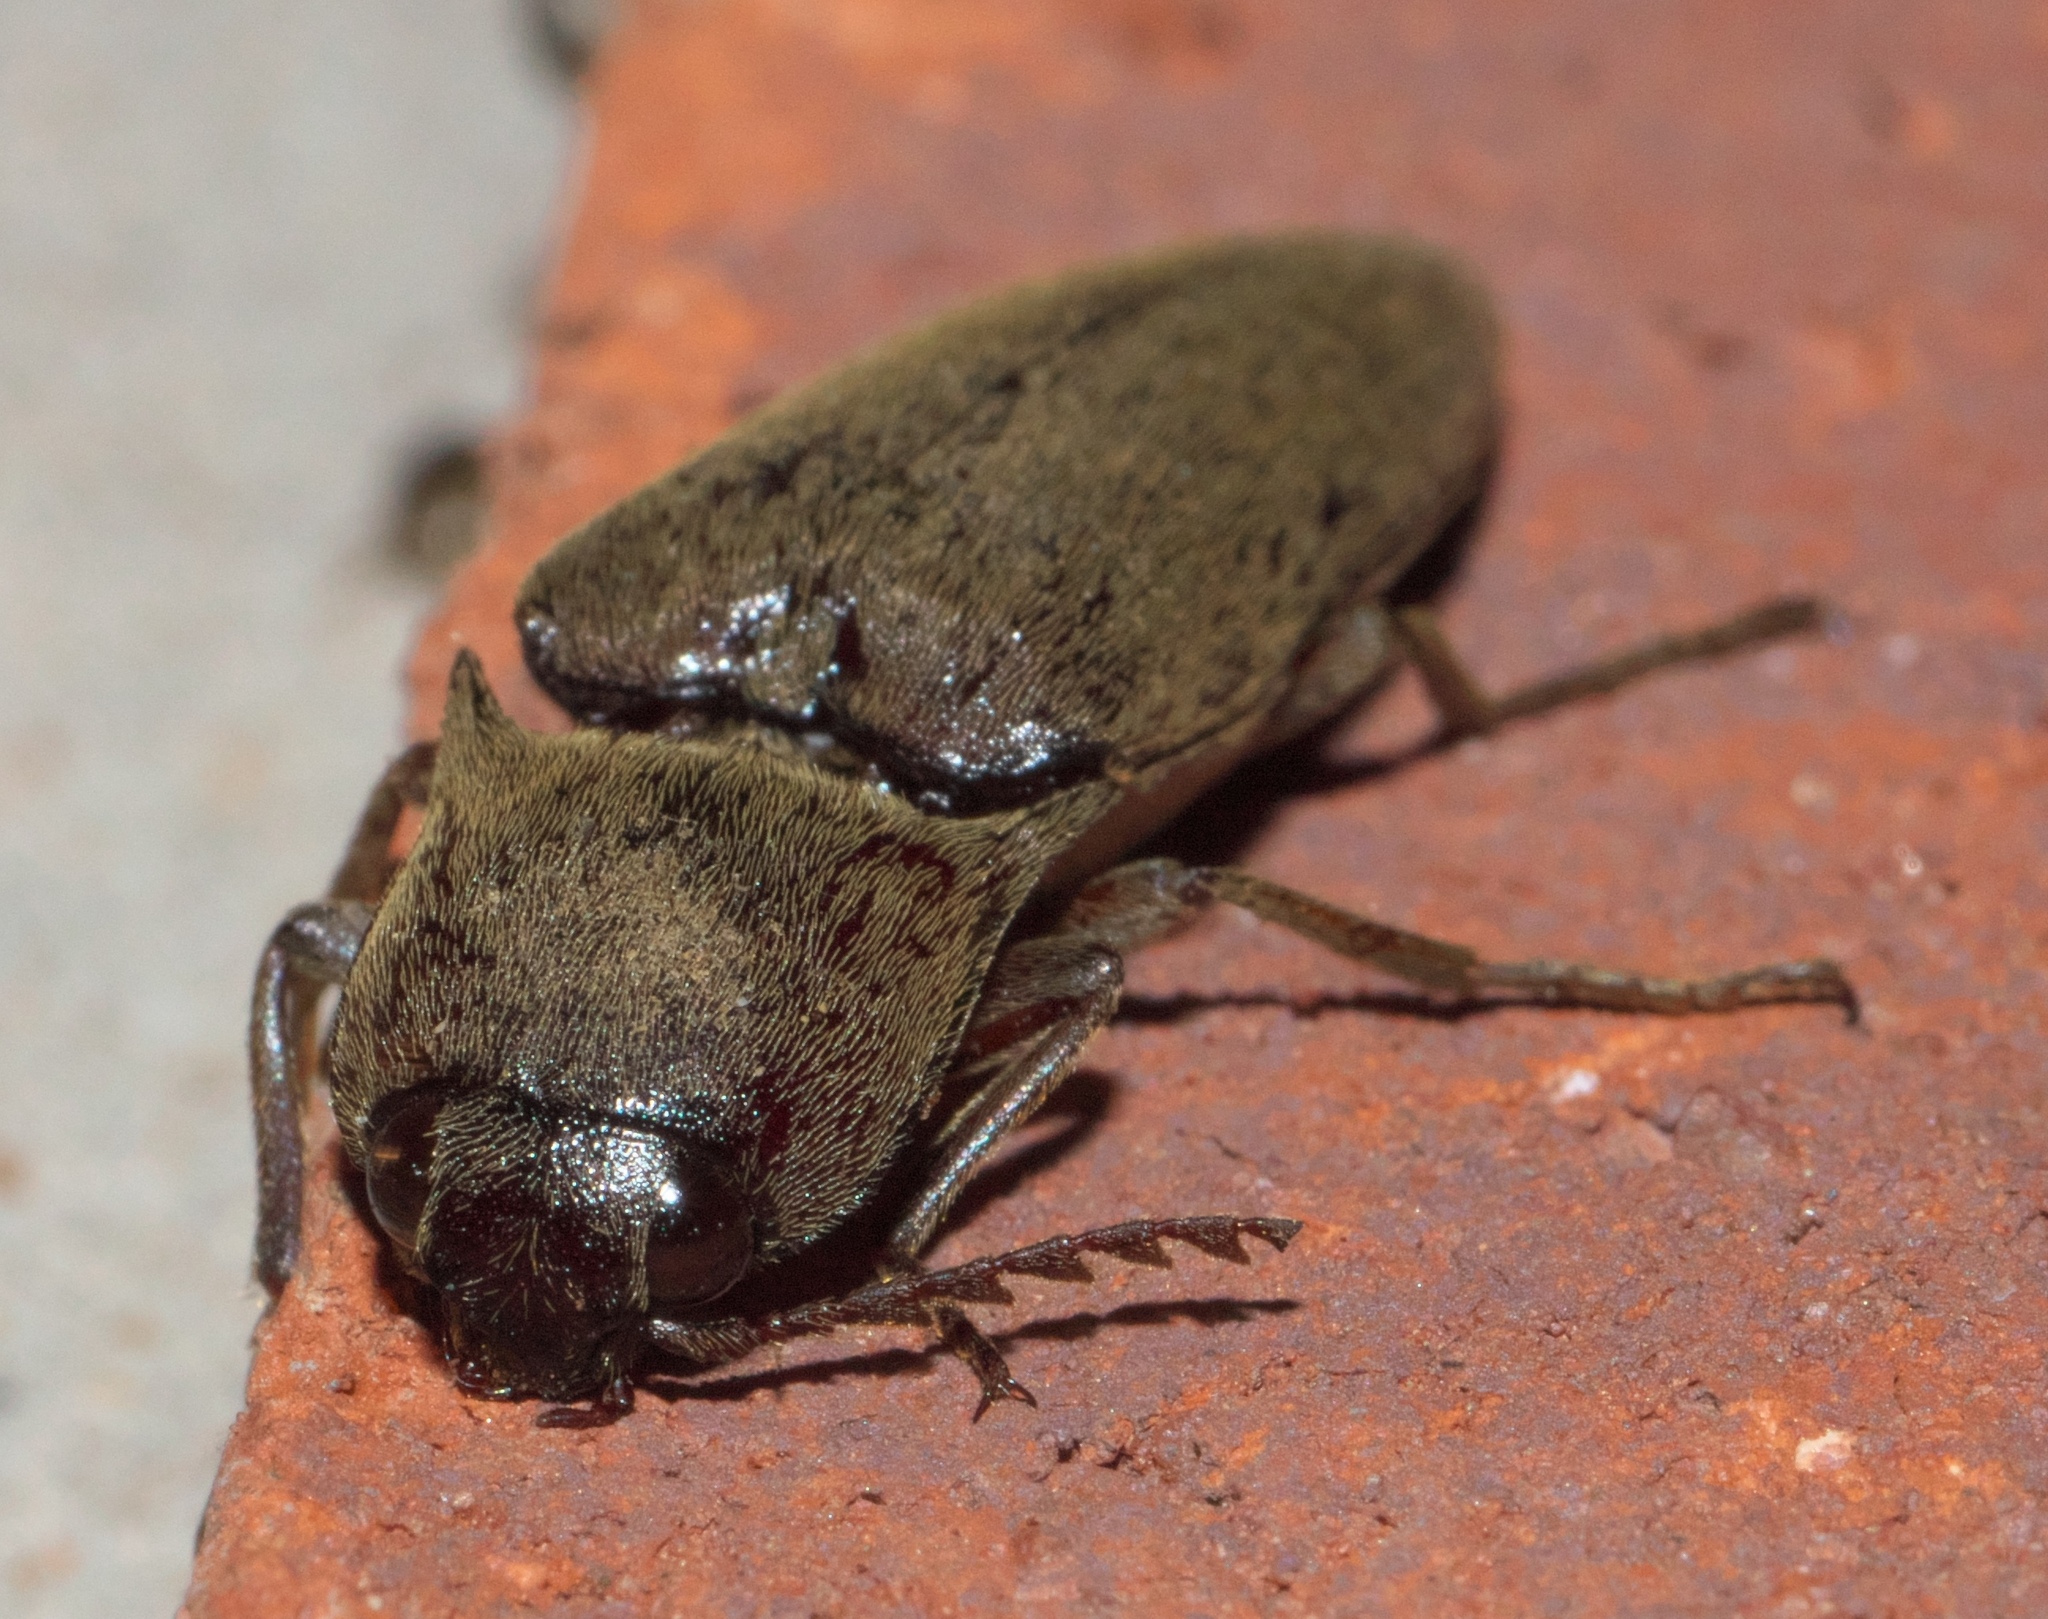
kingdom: Animalia
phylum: Arthropoda
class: Insecta
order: Coleoptera
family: Elateridae
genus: Orthostethus
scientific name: Orthostethus infuscatus
